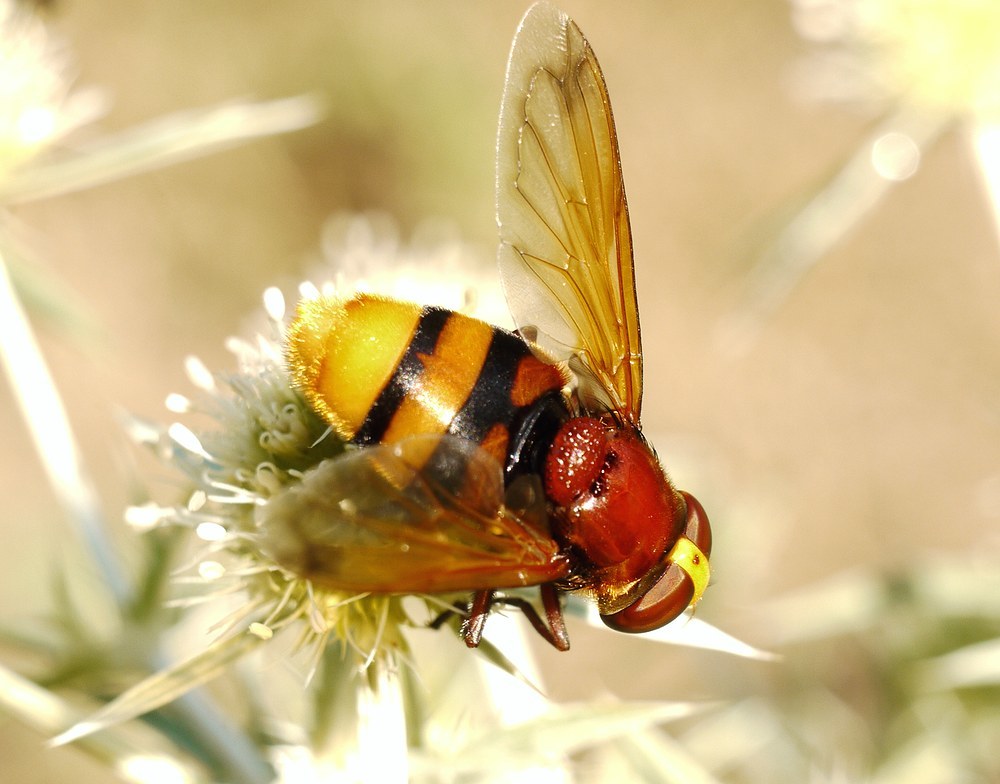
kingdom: Animalia
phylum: Arthropoda
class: Insecta
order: Diptera
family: Syrphidae
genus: Volucella
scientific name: Volucella zonaria
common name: Hornet hoverfly
